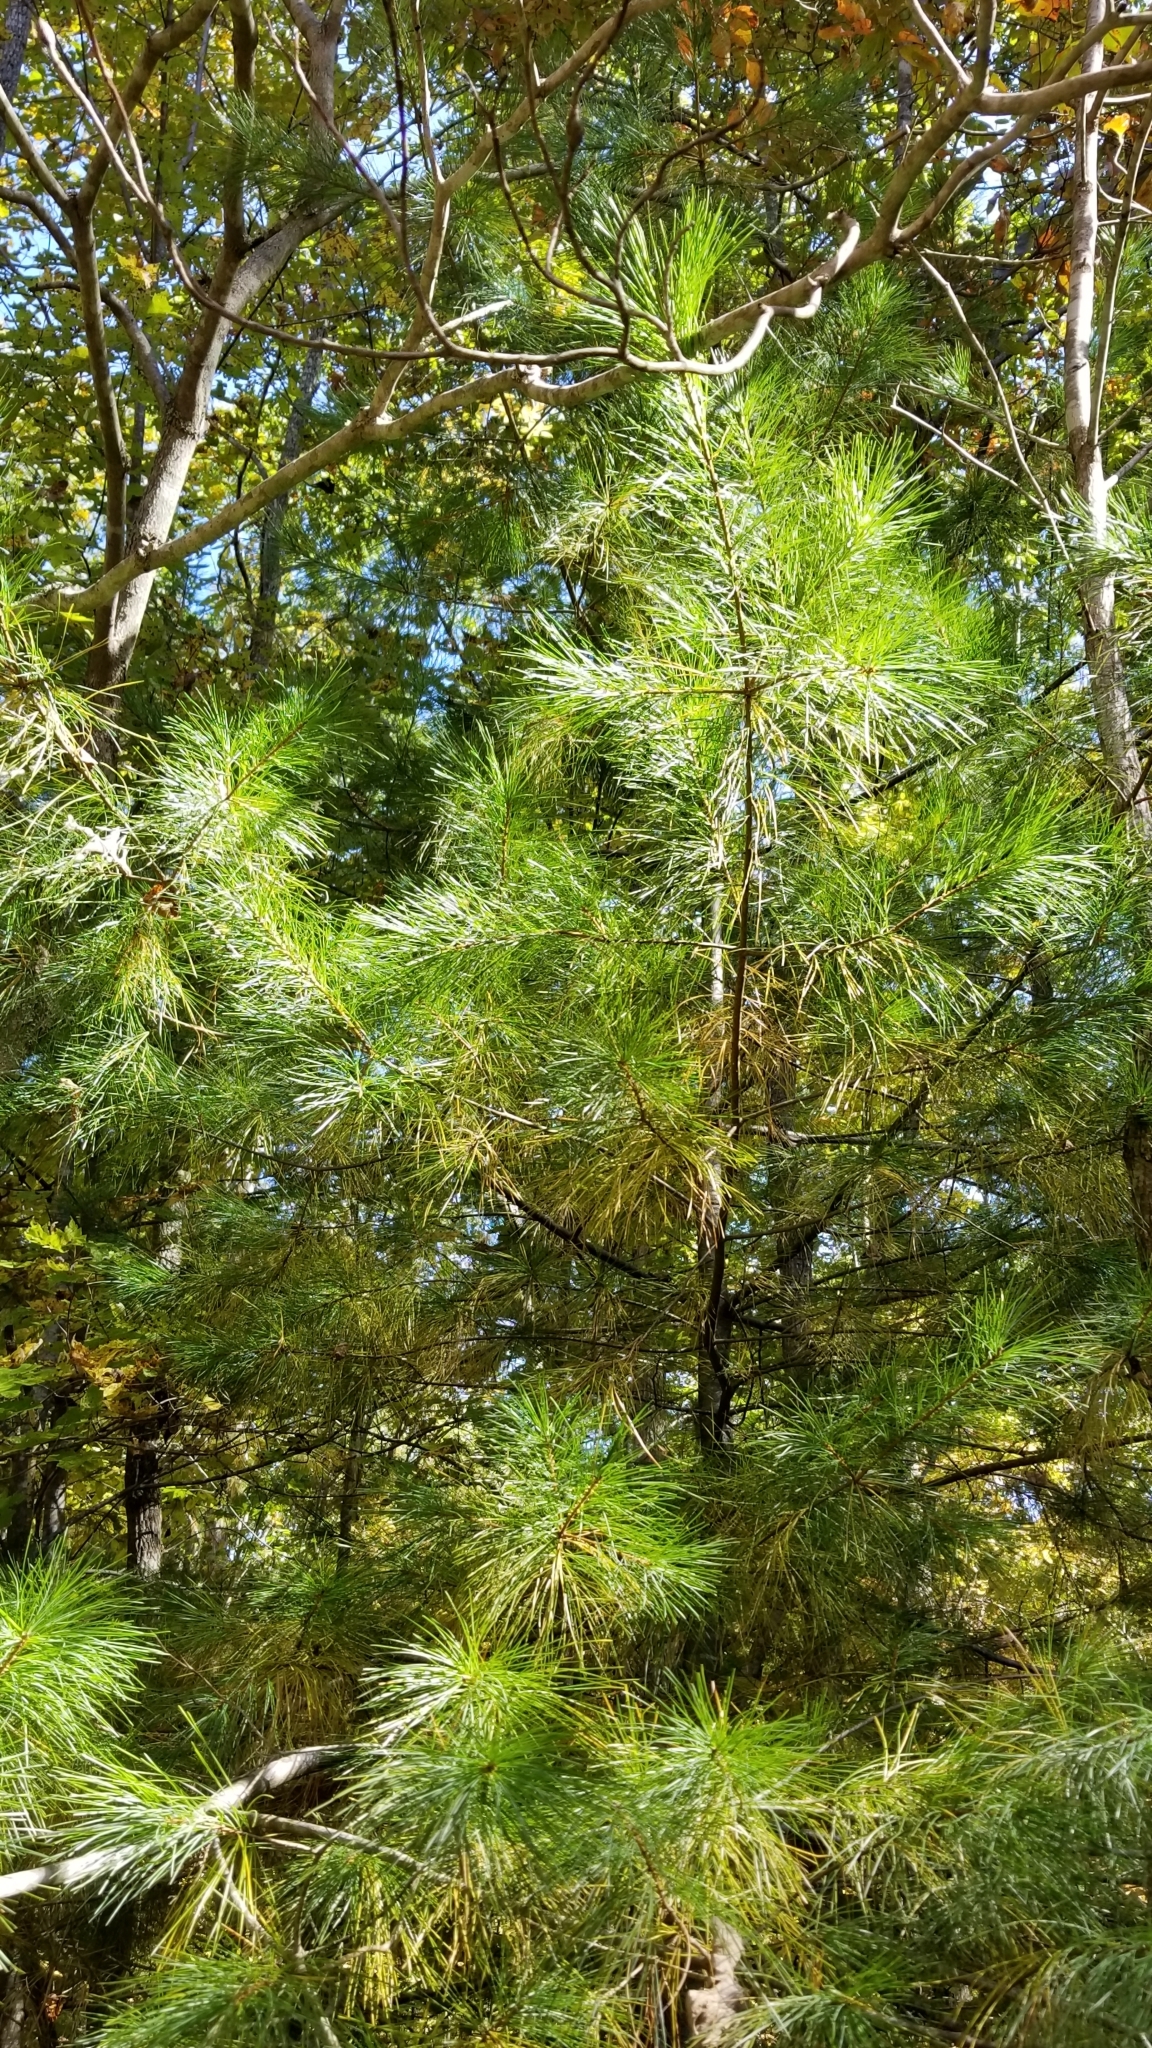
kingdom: Plantae
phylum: Tracheophyta
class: Pinopsida
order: Pinales
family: Pinaceae
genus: Pinus
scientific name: Pinus strobus
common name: Weymouth pine
